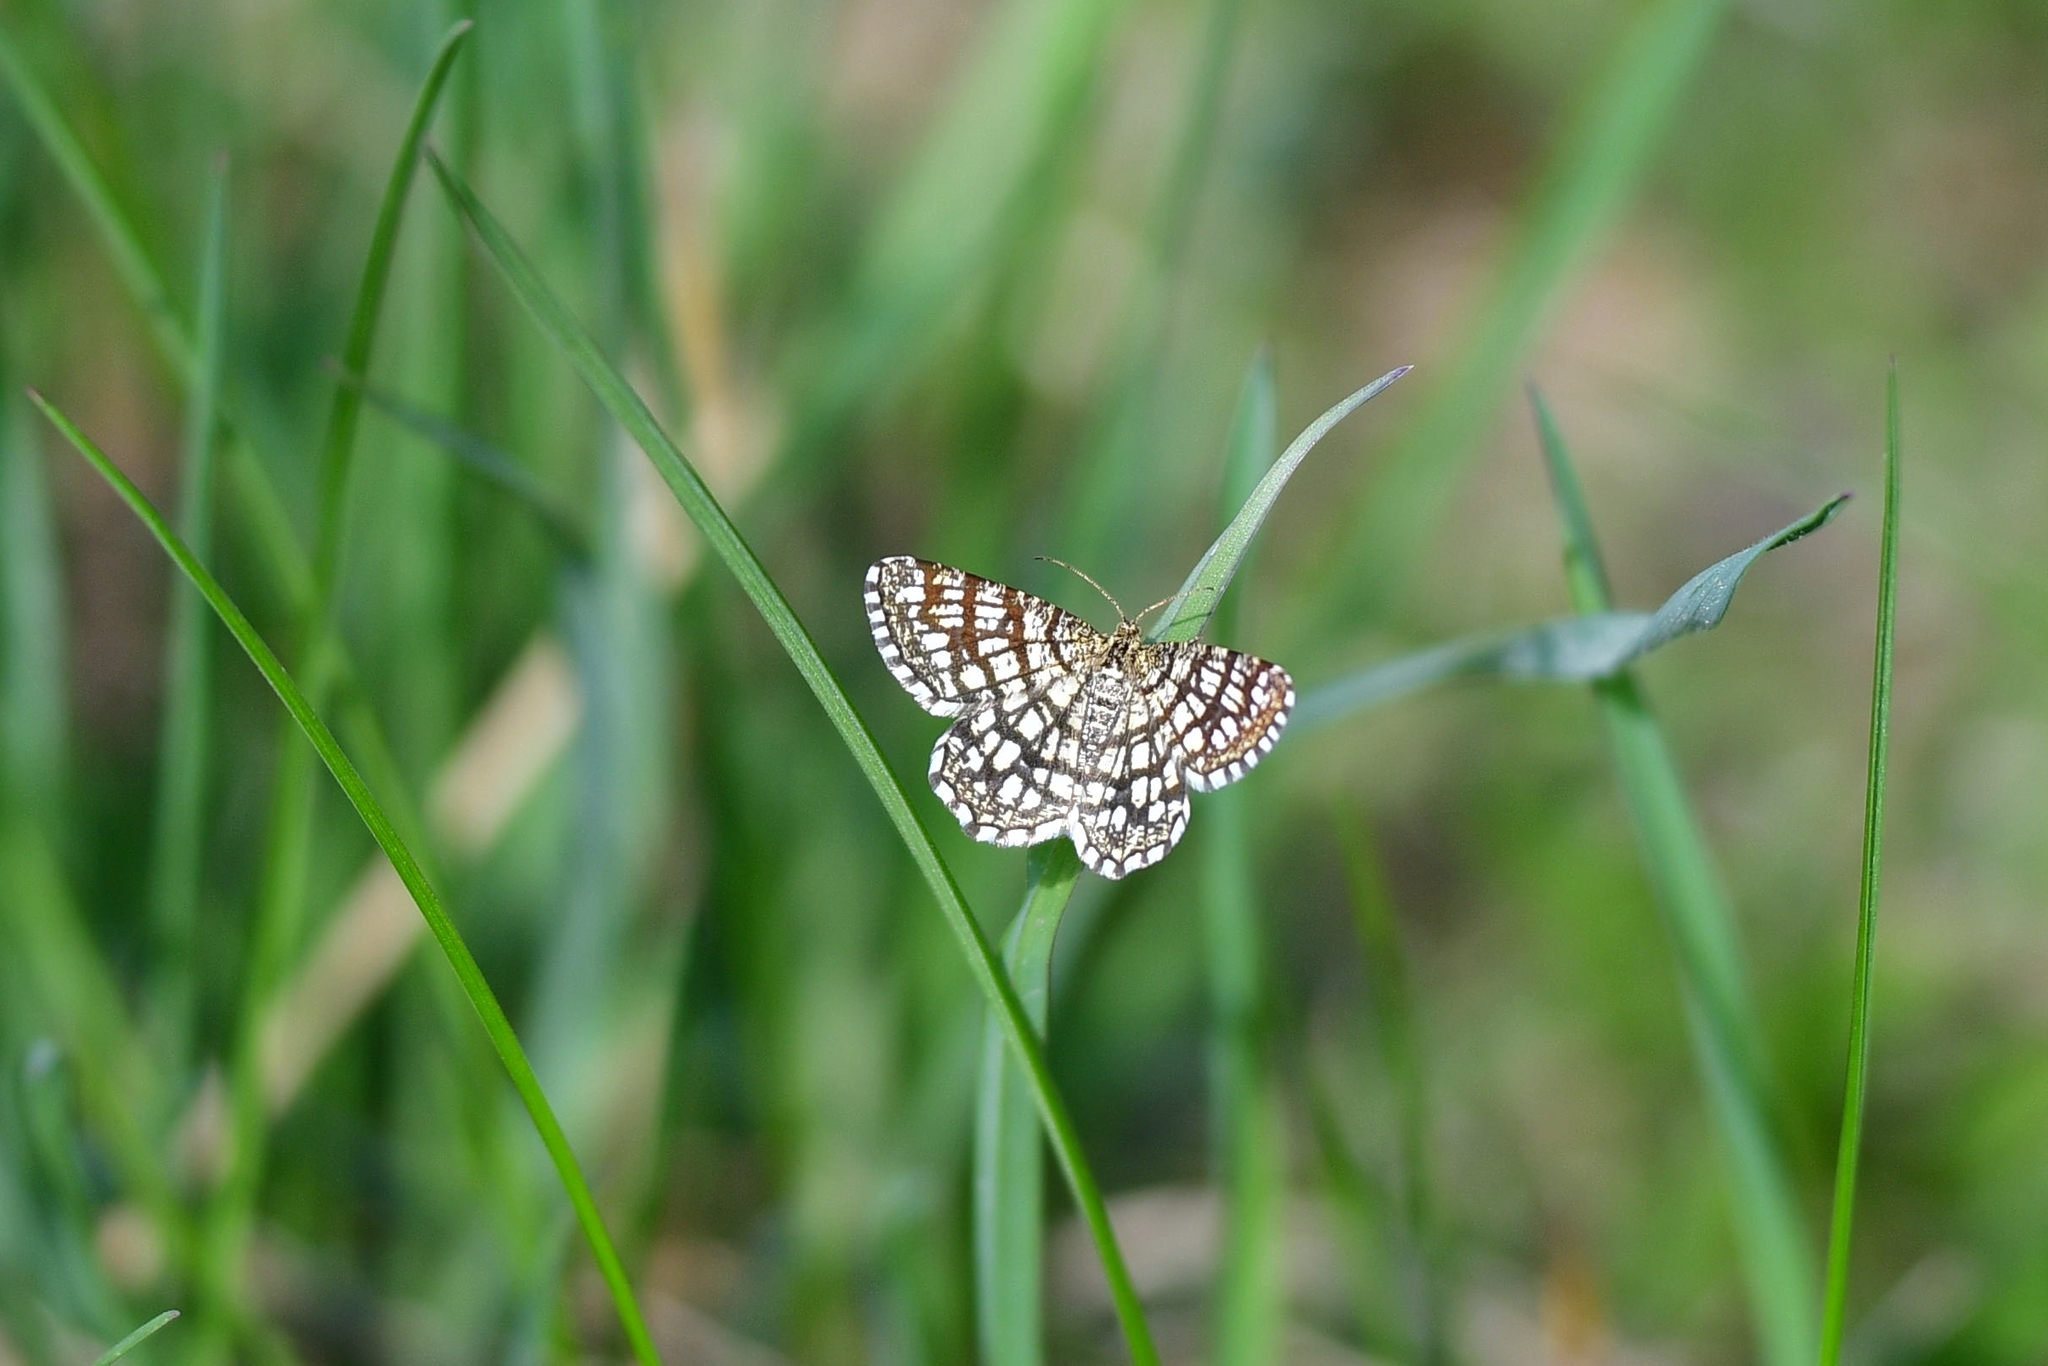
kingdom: Animalia
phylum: Arthropoda
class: Insecta
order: Lepidoptera
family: Geometridae
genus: Chiasmia
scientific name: Chiasmia clathrata
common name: Latticed heath
